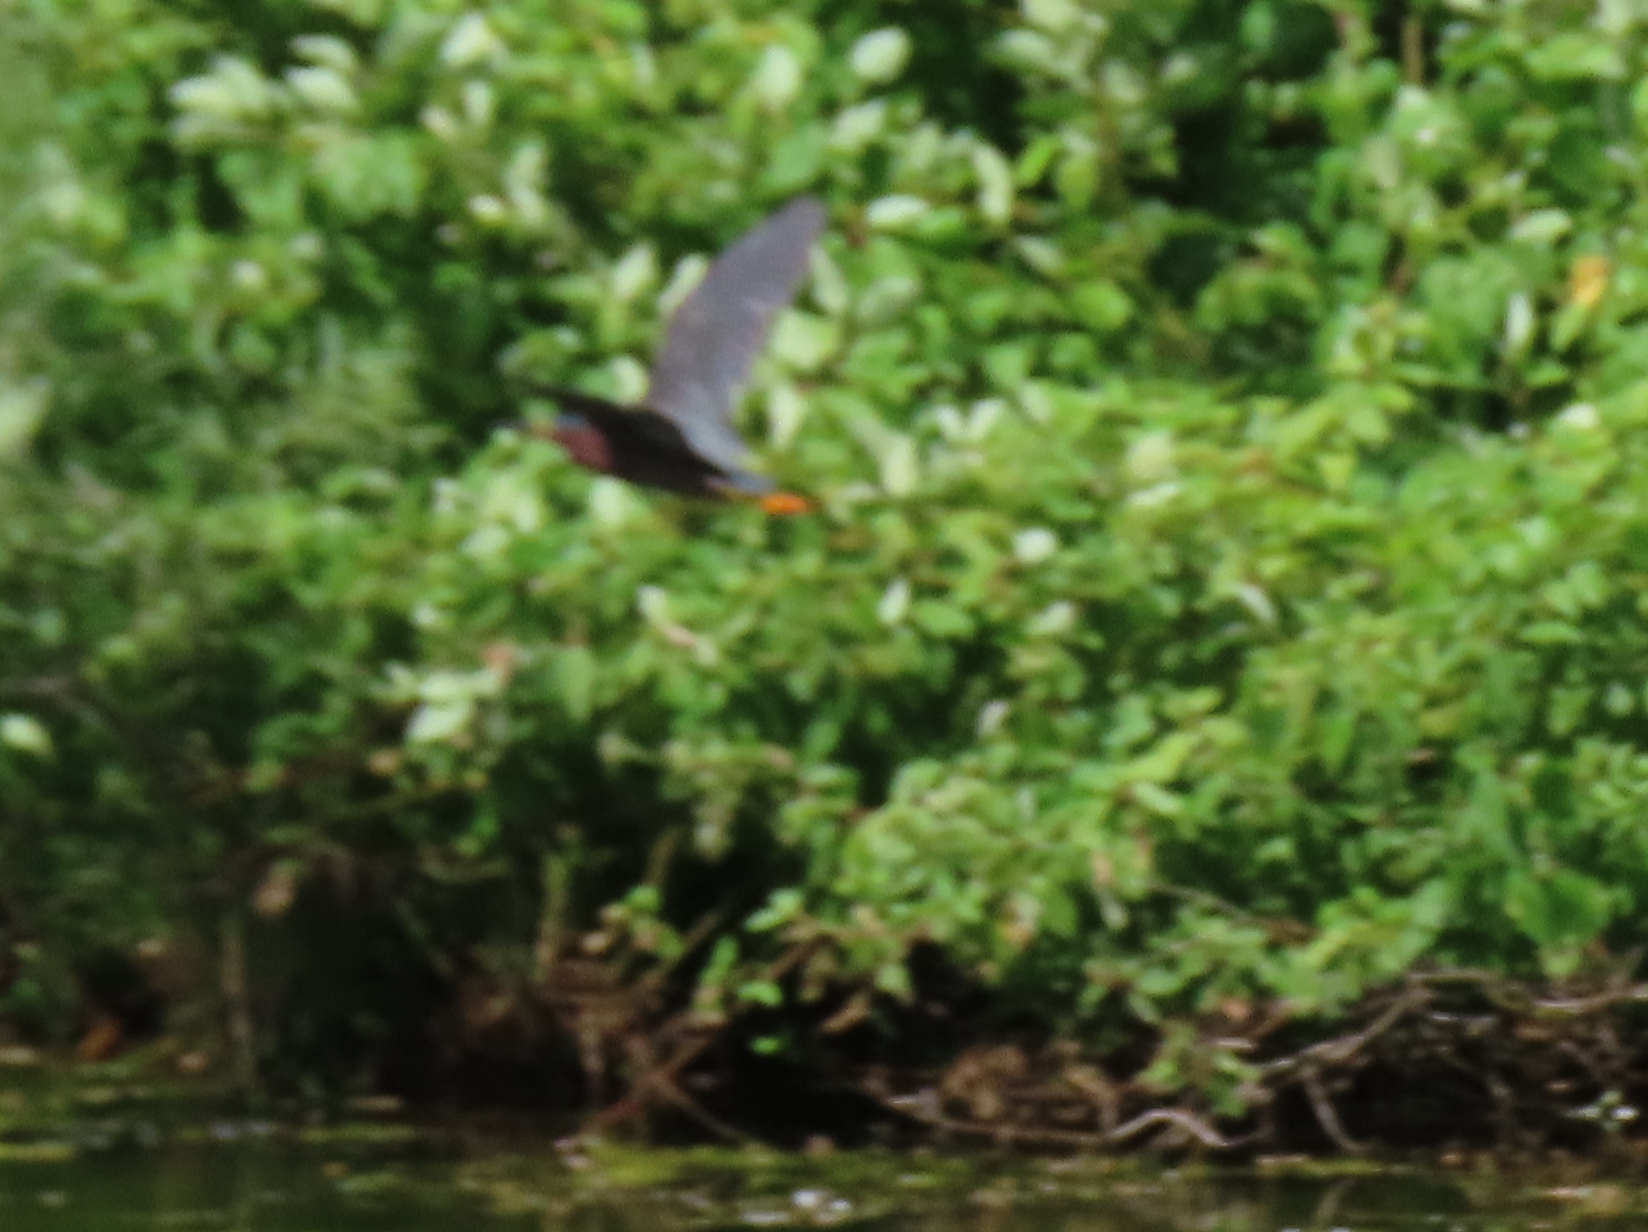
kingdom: Animalia
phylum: Chordata
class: Aves
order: Pelecaniformes
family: Ardeidae
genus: Butorides
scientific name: Butorides virescens
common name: Green heron
